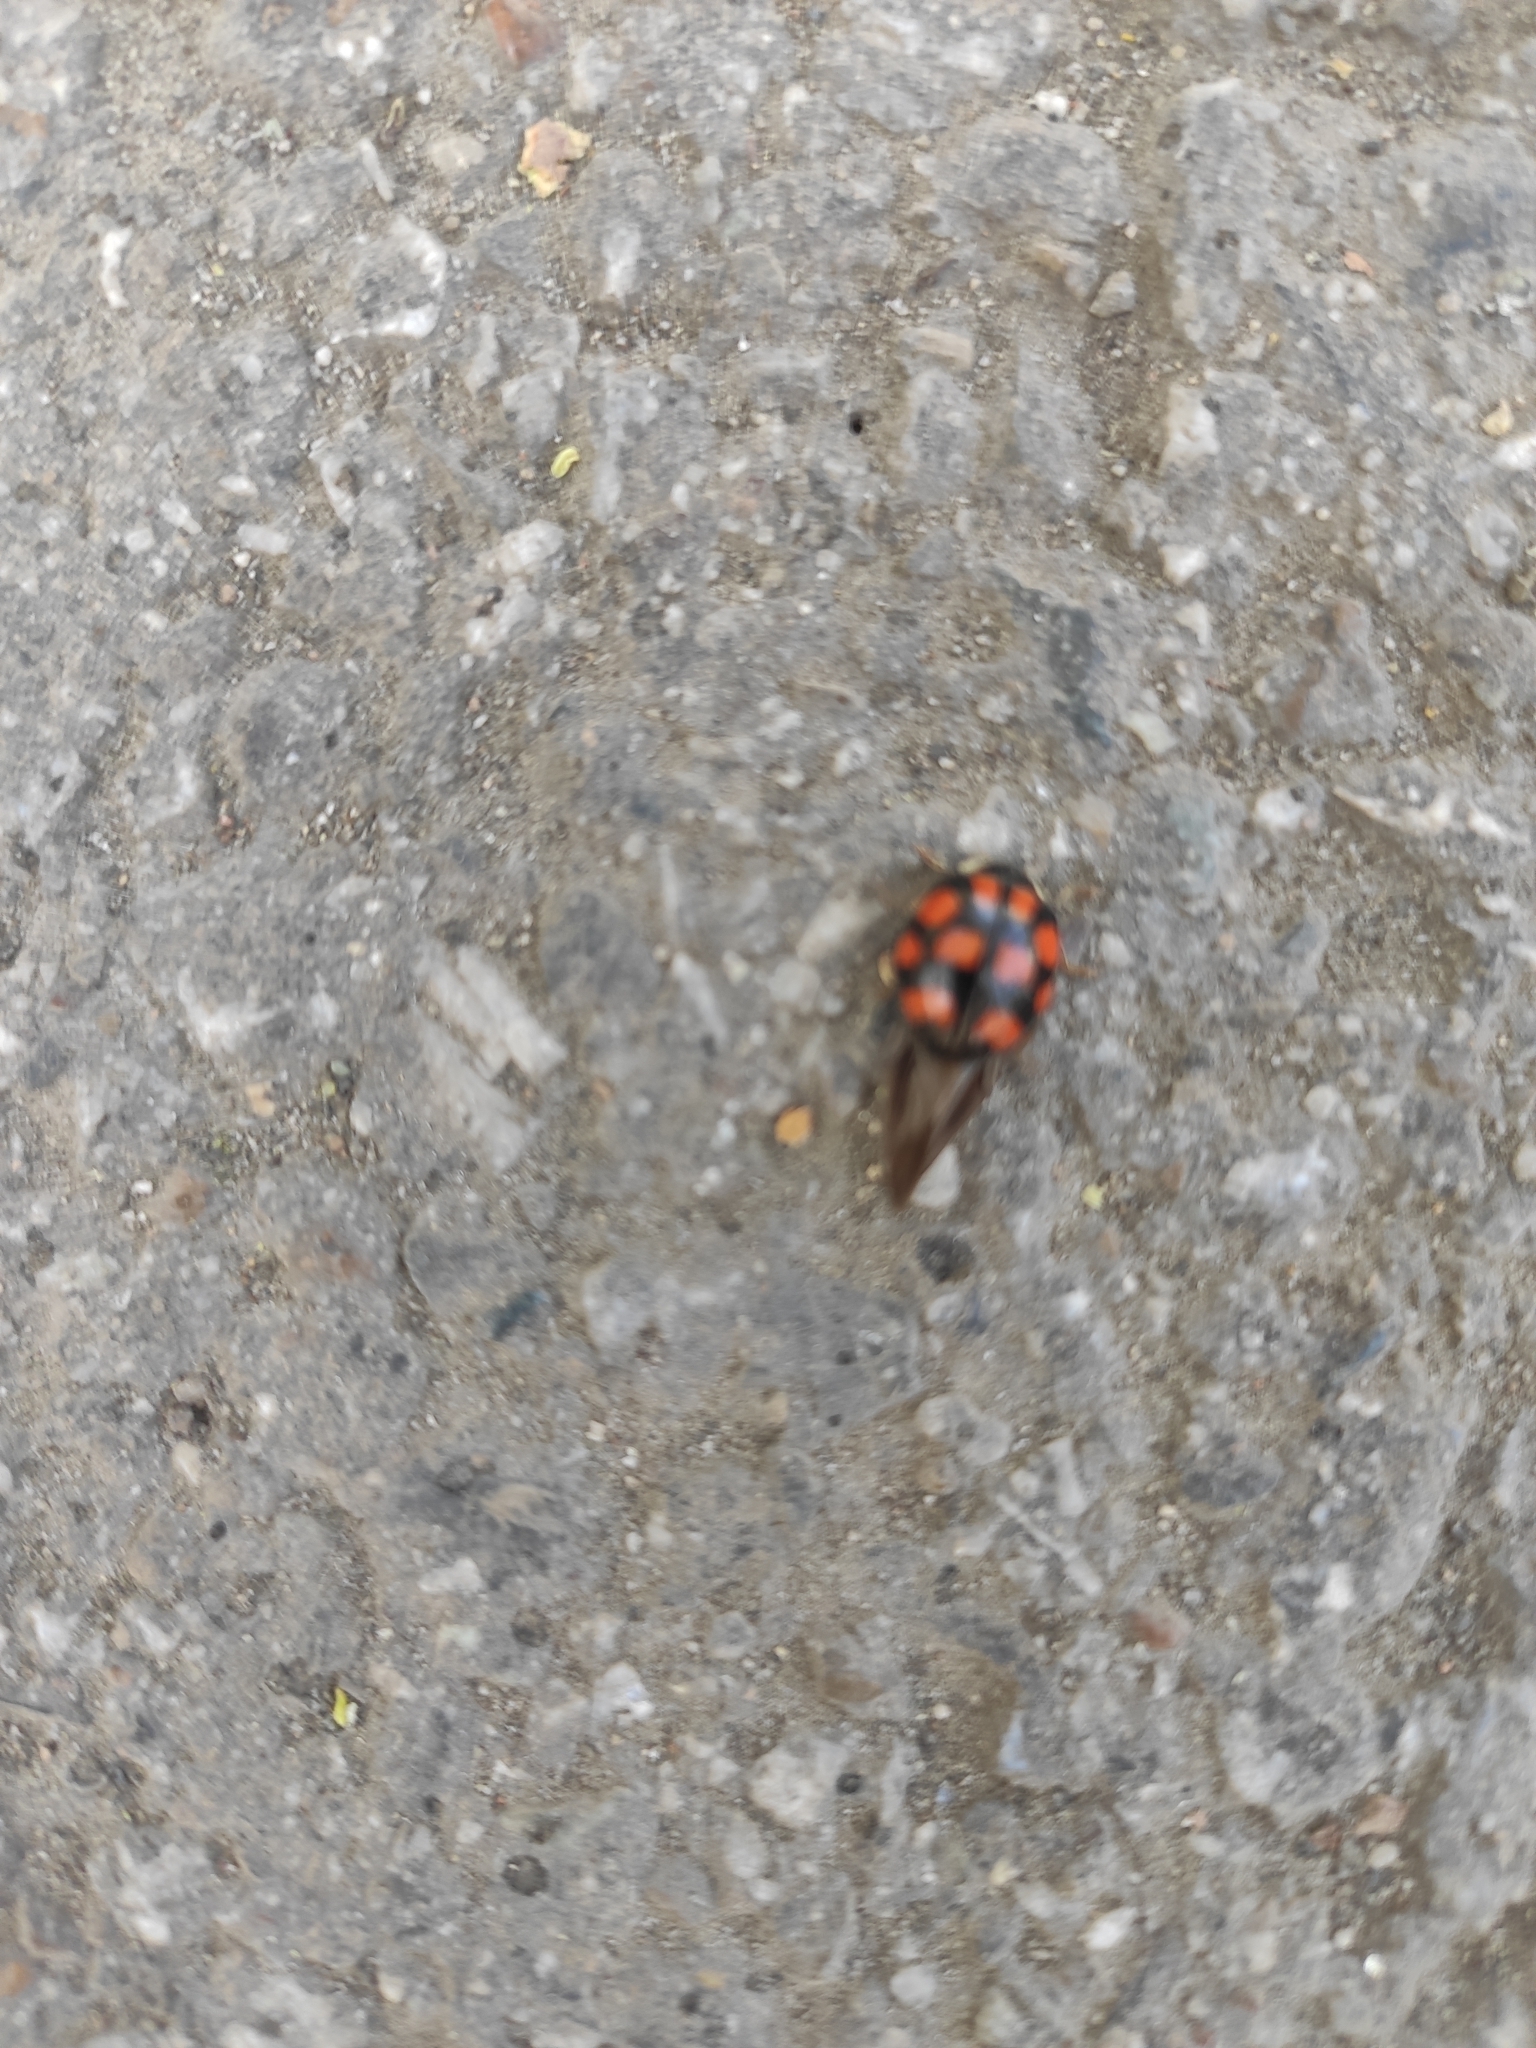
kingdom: Animalia
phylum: Arthropoda
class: Insecta
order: Coleoptera
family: Coccinellidae
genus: Harmonia
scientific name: Harmonia axyridis
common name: Harlequin ladybird
